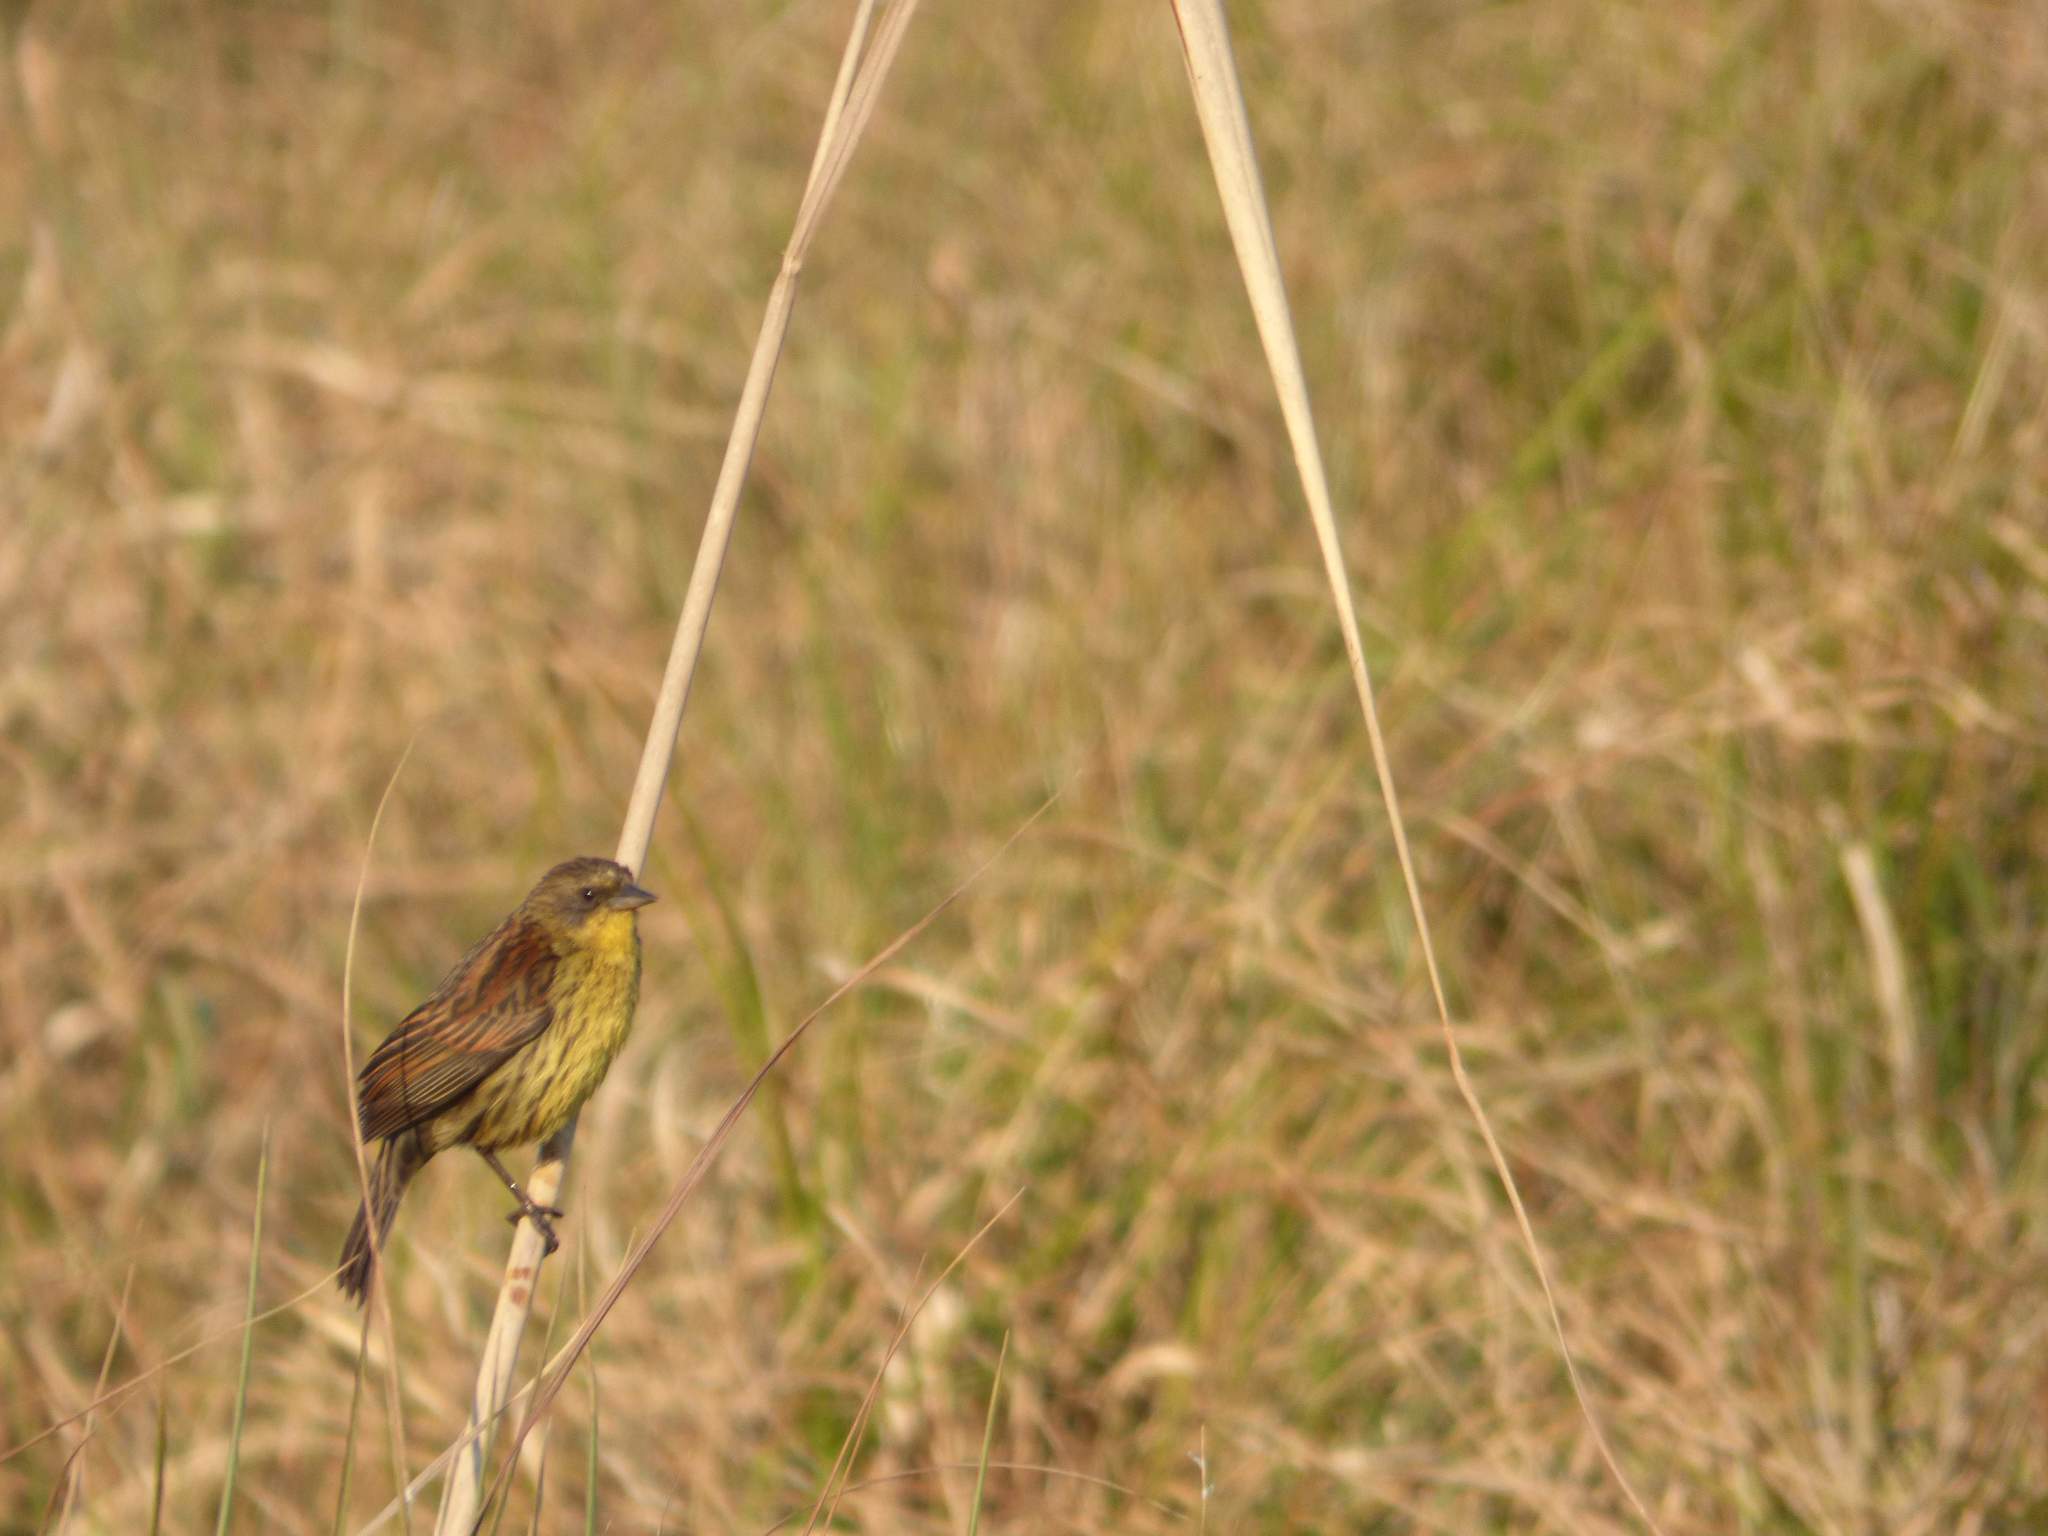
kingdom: Animalia
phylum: Chordata
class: Aves
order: Passeriformes
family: Icteridae
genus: Agelasticus
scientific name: Agelasticus cyanopus
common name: Unicolored blackbird
